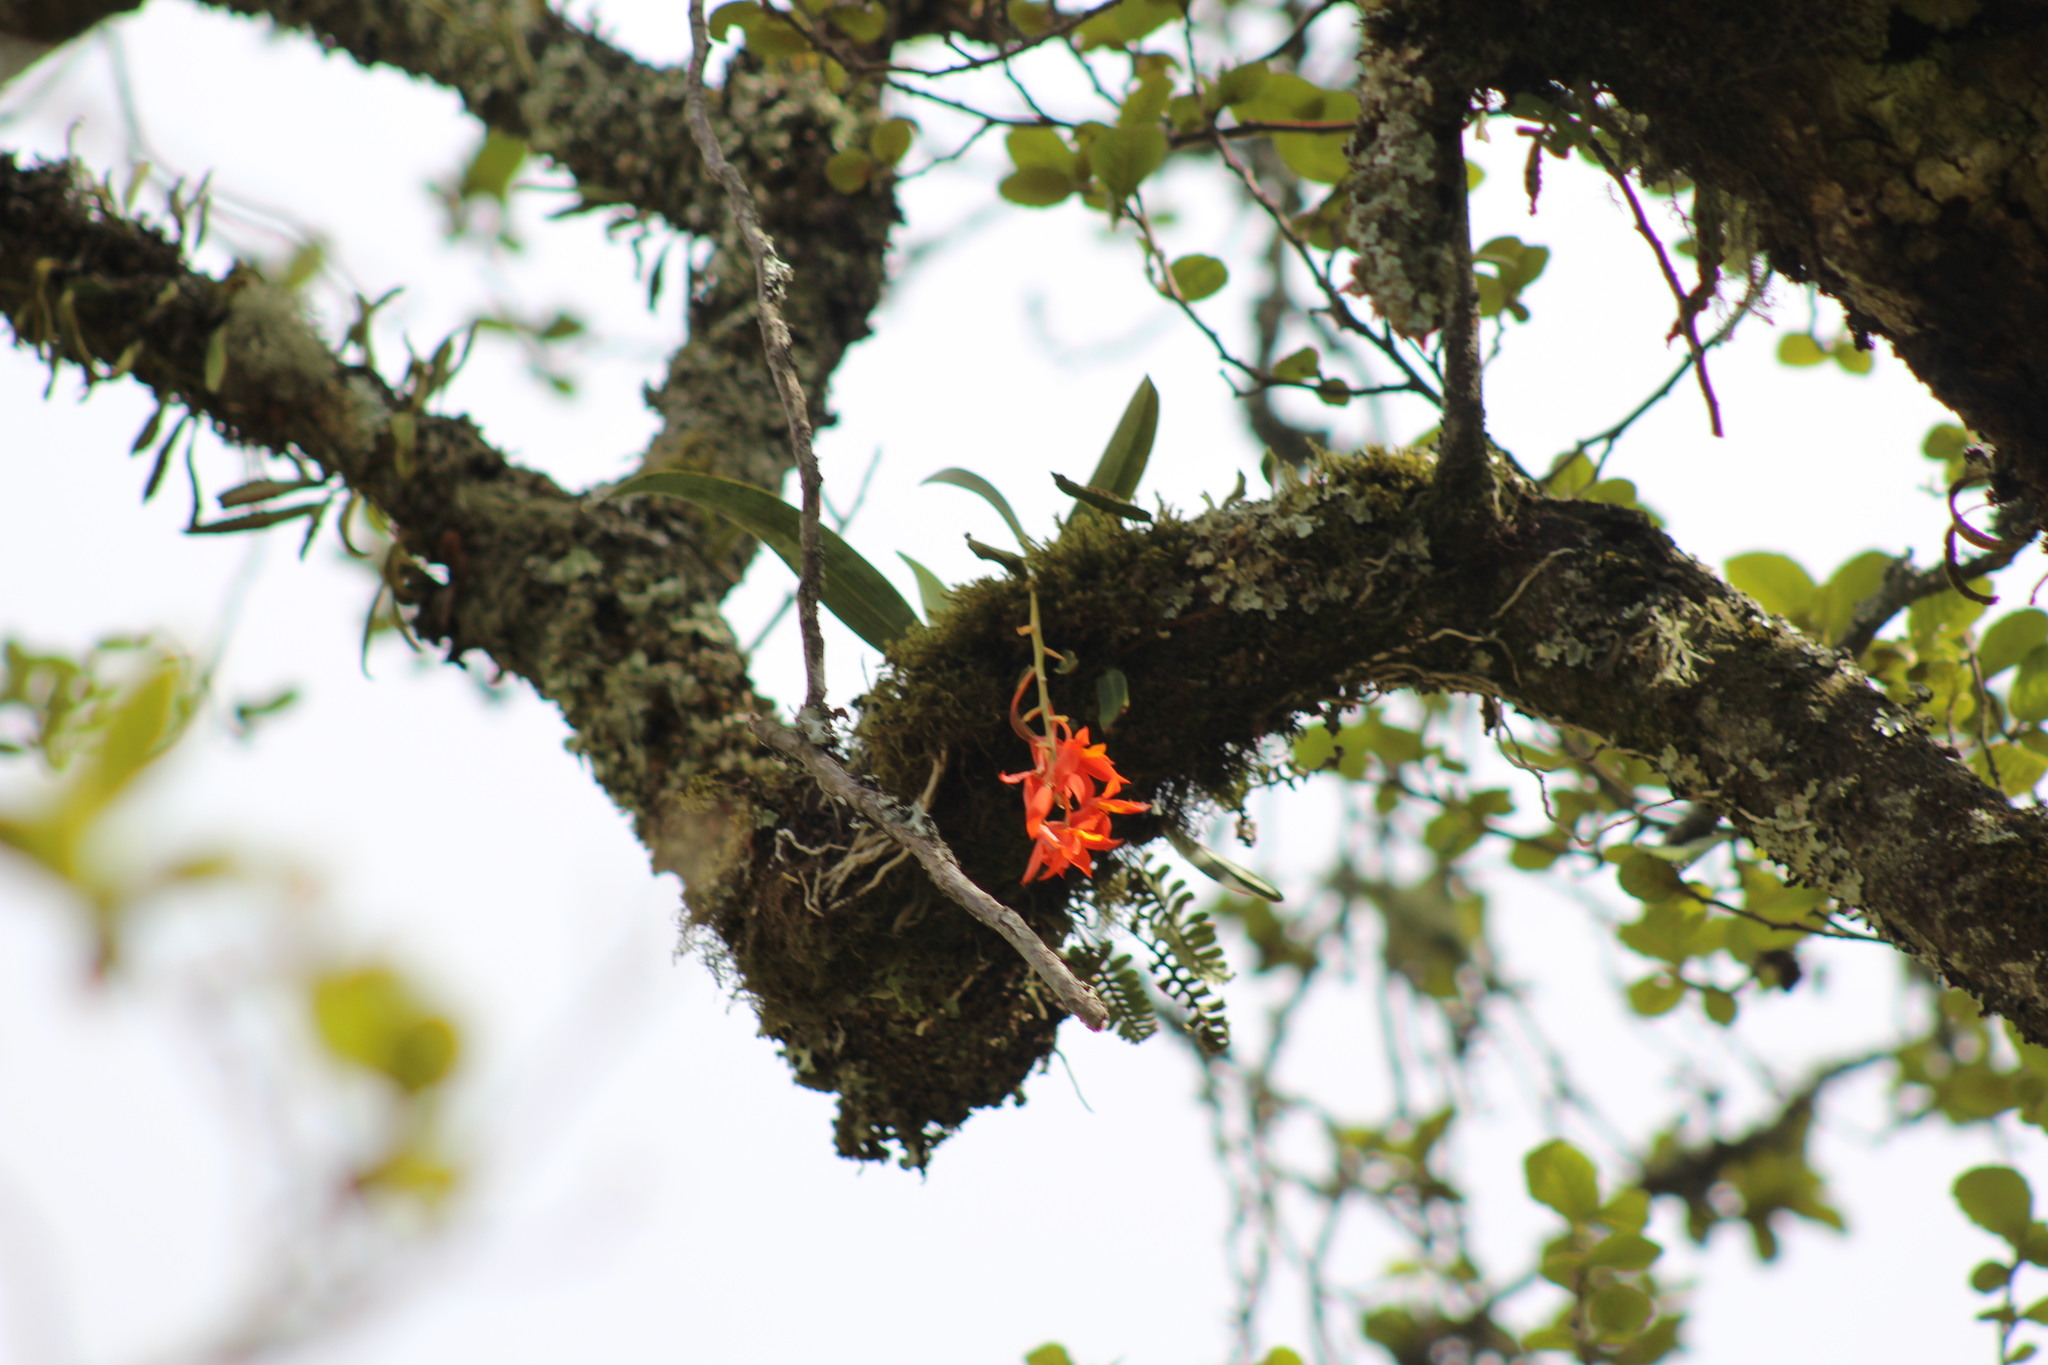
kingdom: Plantae
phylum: Tracheophyta
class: Liliopsida
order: Asparagales
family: Orchidaceae
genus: Prosthechea
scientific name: Prosthechea vitellina
